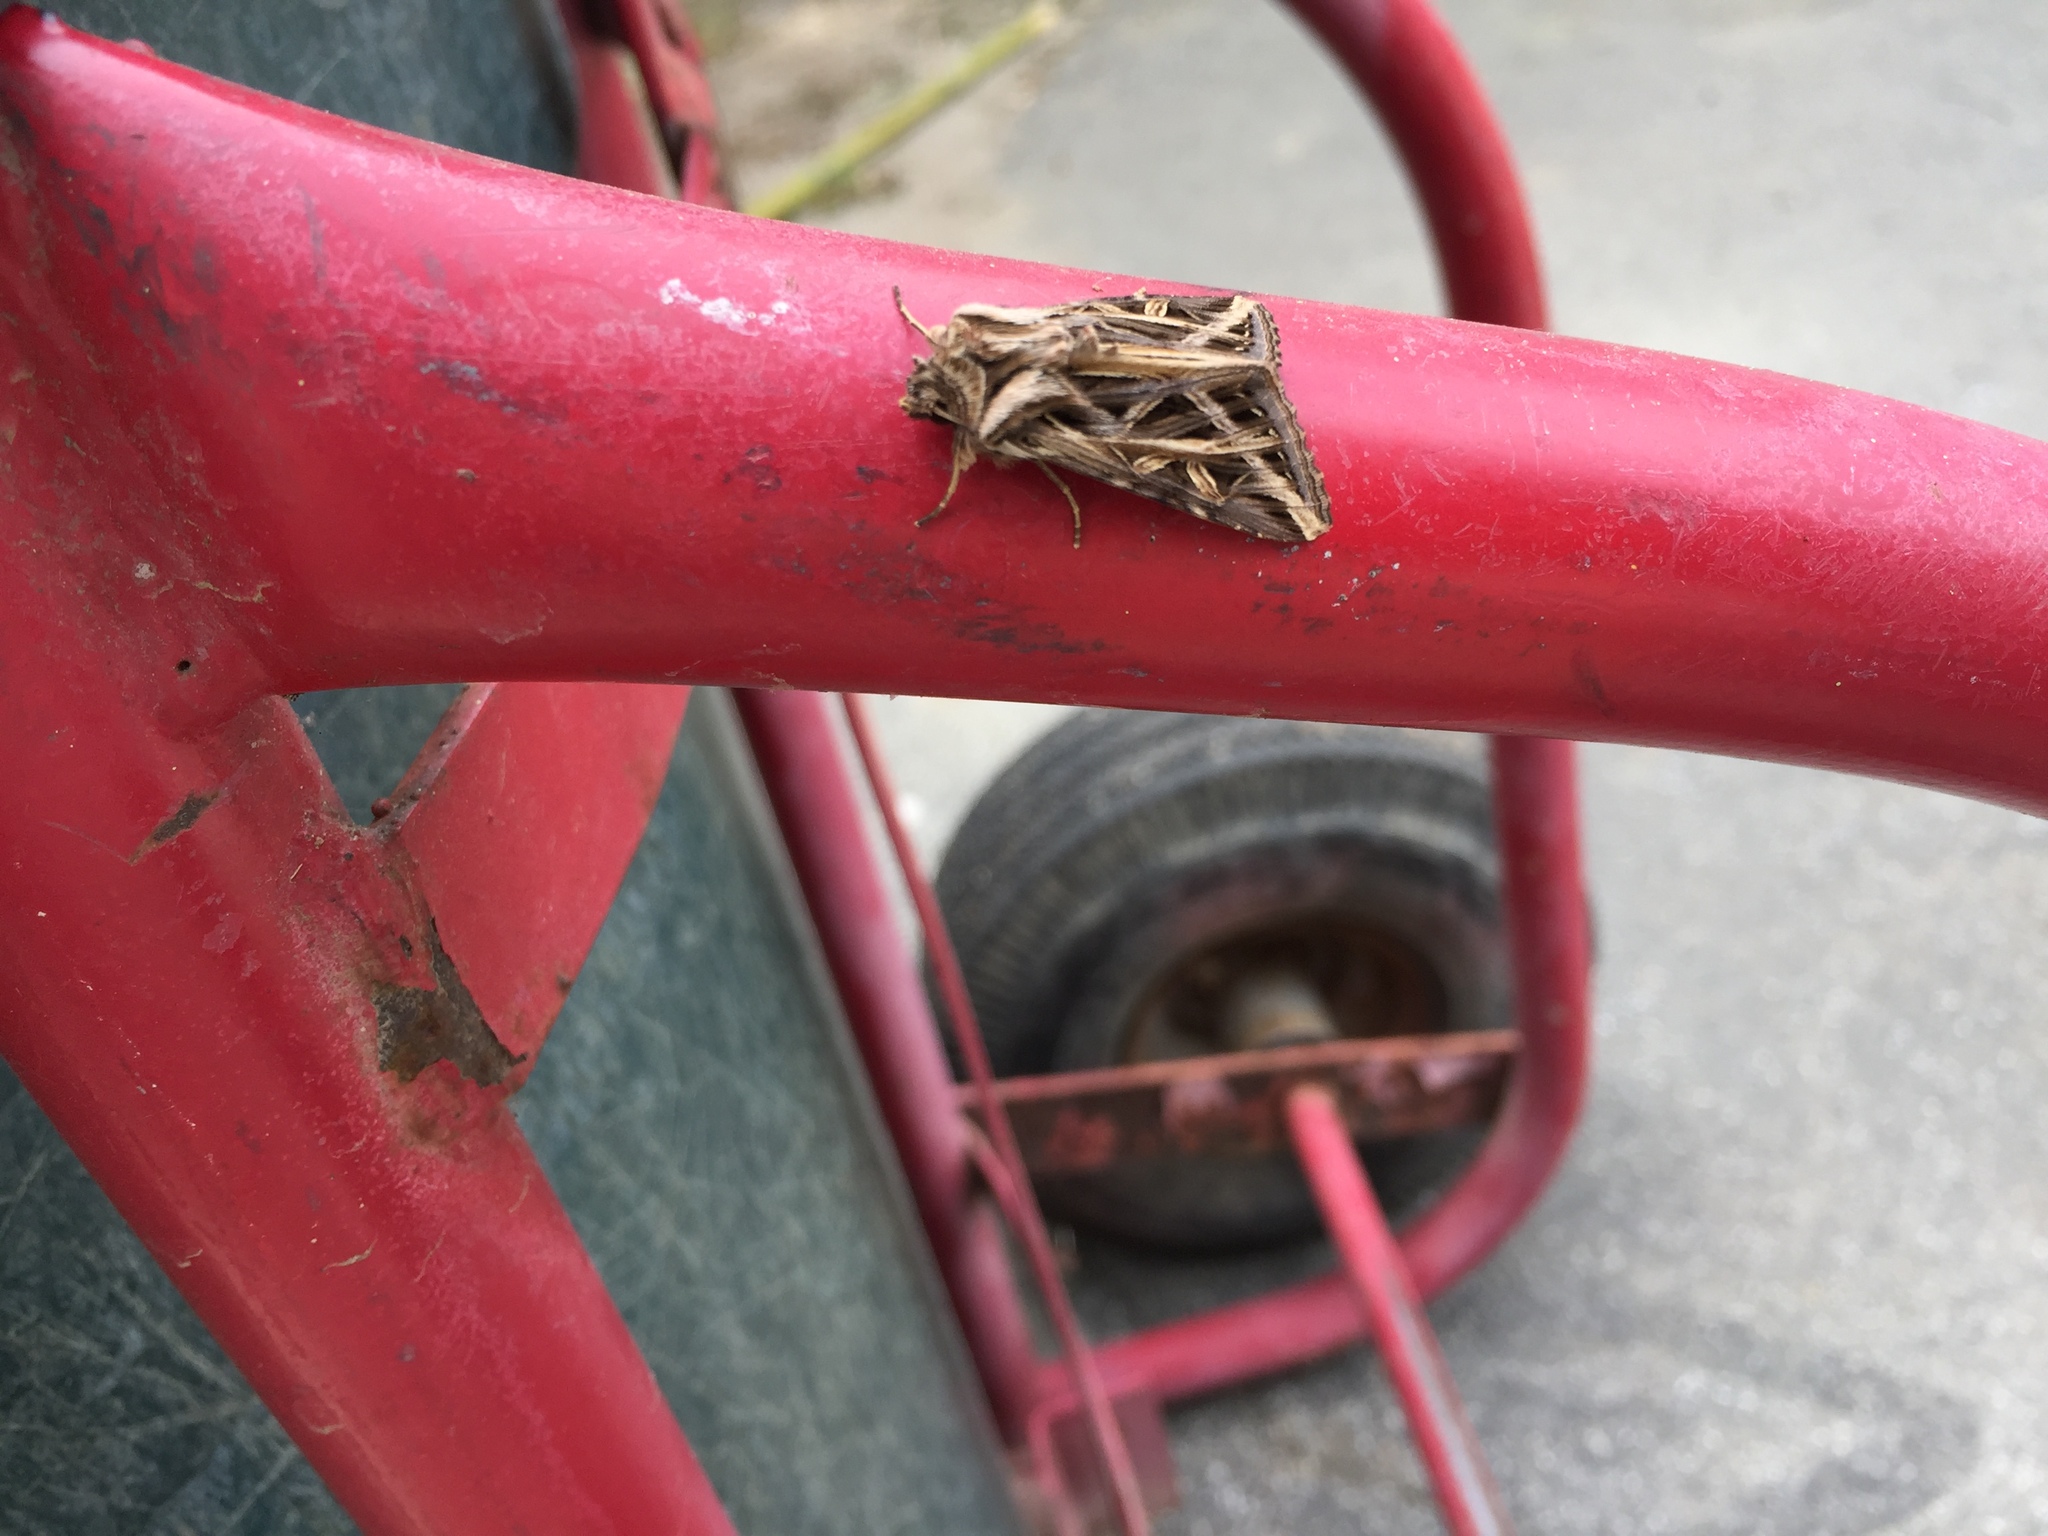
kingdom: Animalia
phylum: Arthropoda
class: Insecta
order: Lepidoptera
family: Noctuidae
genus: Dargida
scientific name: Dargida procinctus
